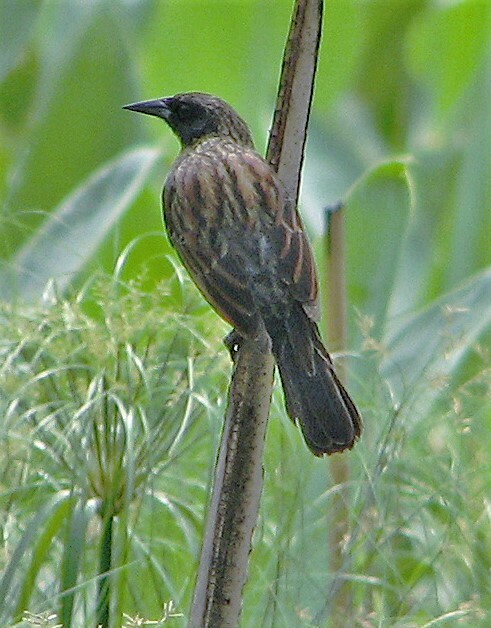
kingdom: Animalia
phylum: Chordata
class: Aves
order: Passeriformes
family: Icteridae
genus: Agelasticus
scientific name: Agelasticus cyanopus
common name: Unicolored blackbird
